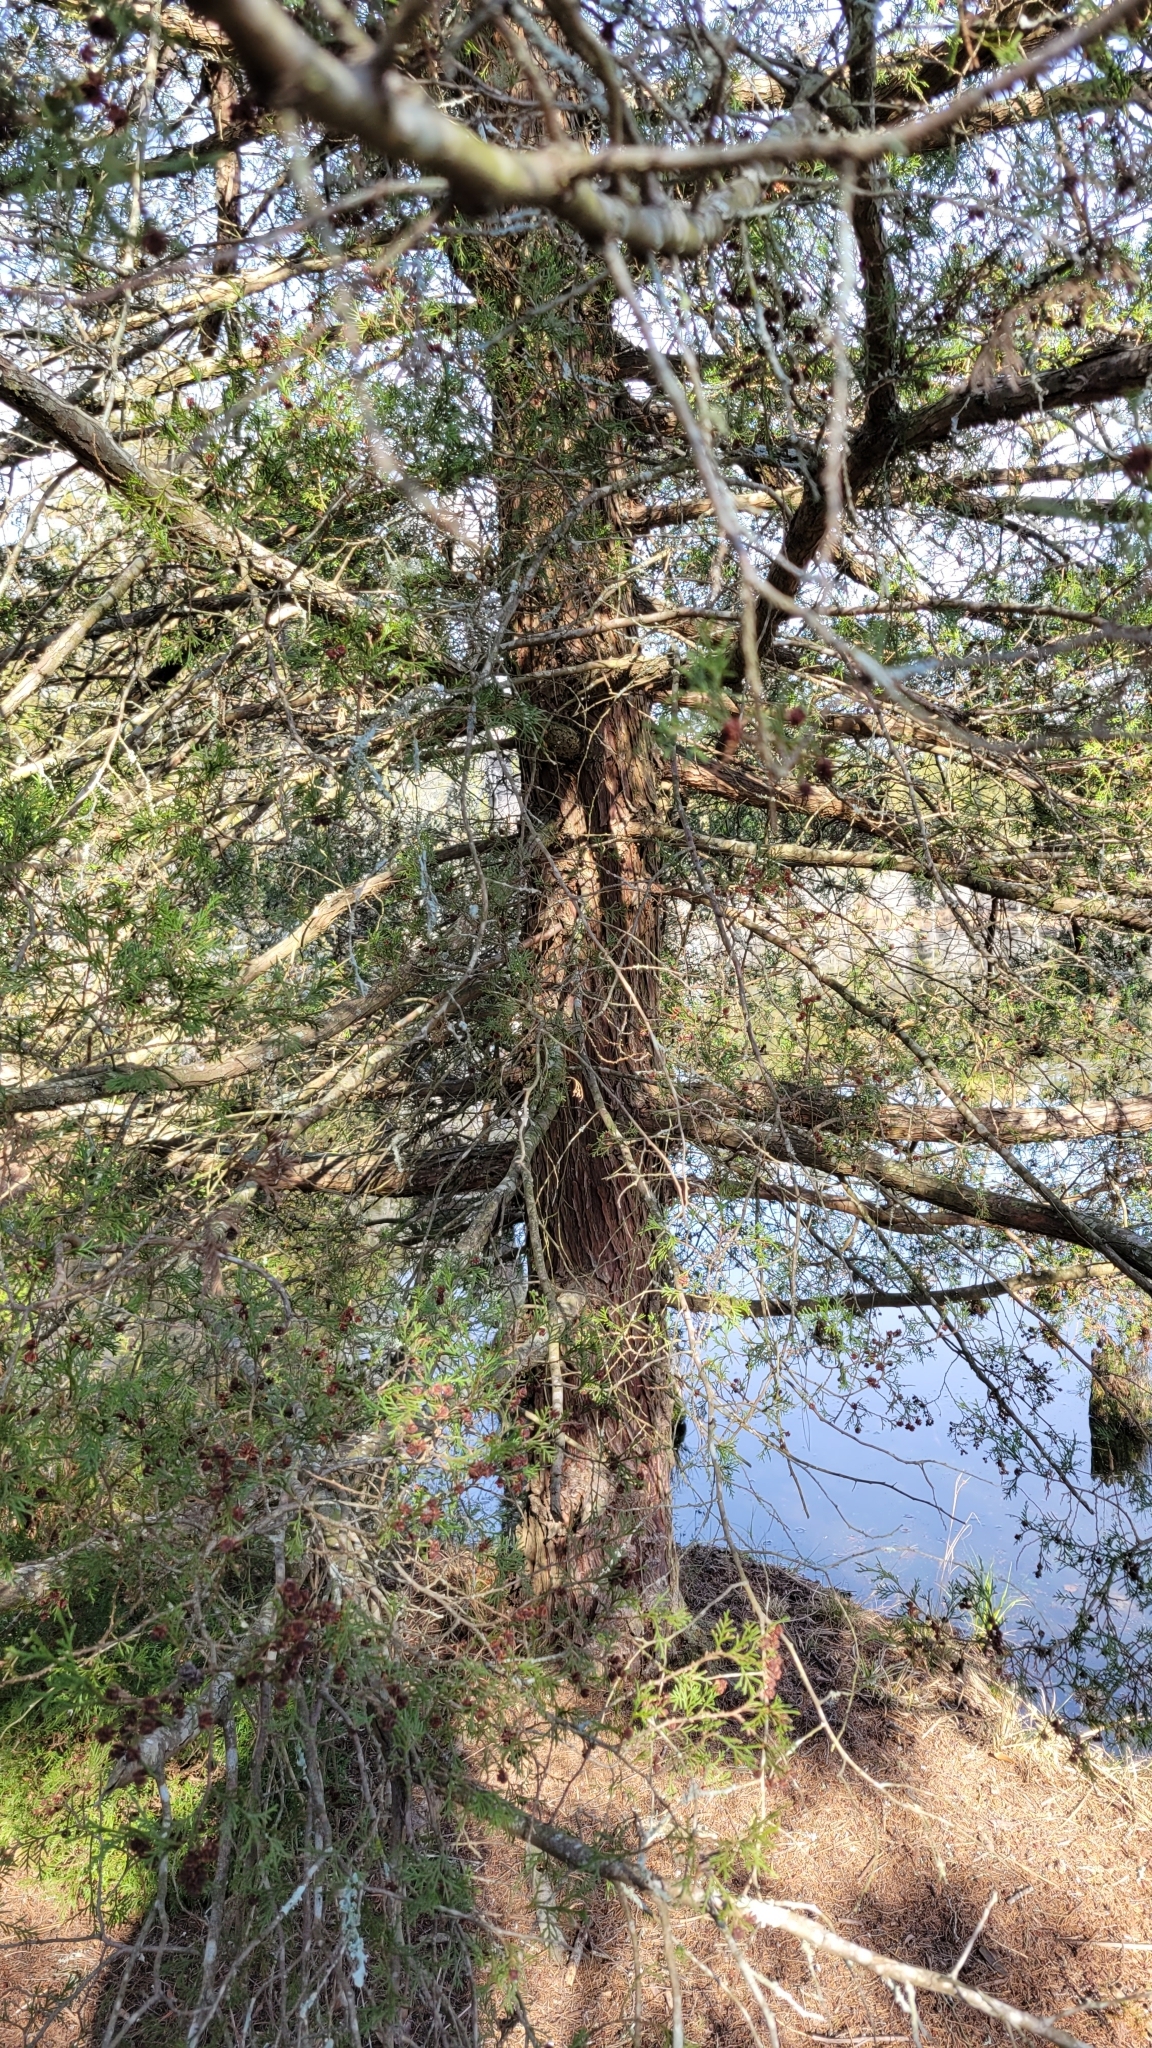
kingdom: Plantae
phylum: Tracheophyta
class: Pinopsida
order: Pinales
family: Cupressaceae
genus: Chamaecyparis
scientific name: Chamaecyparis thyoides
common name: Atlantic white cedar
